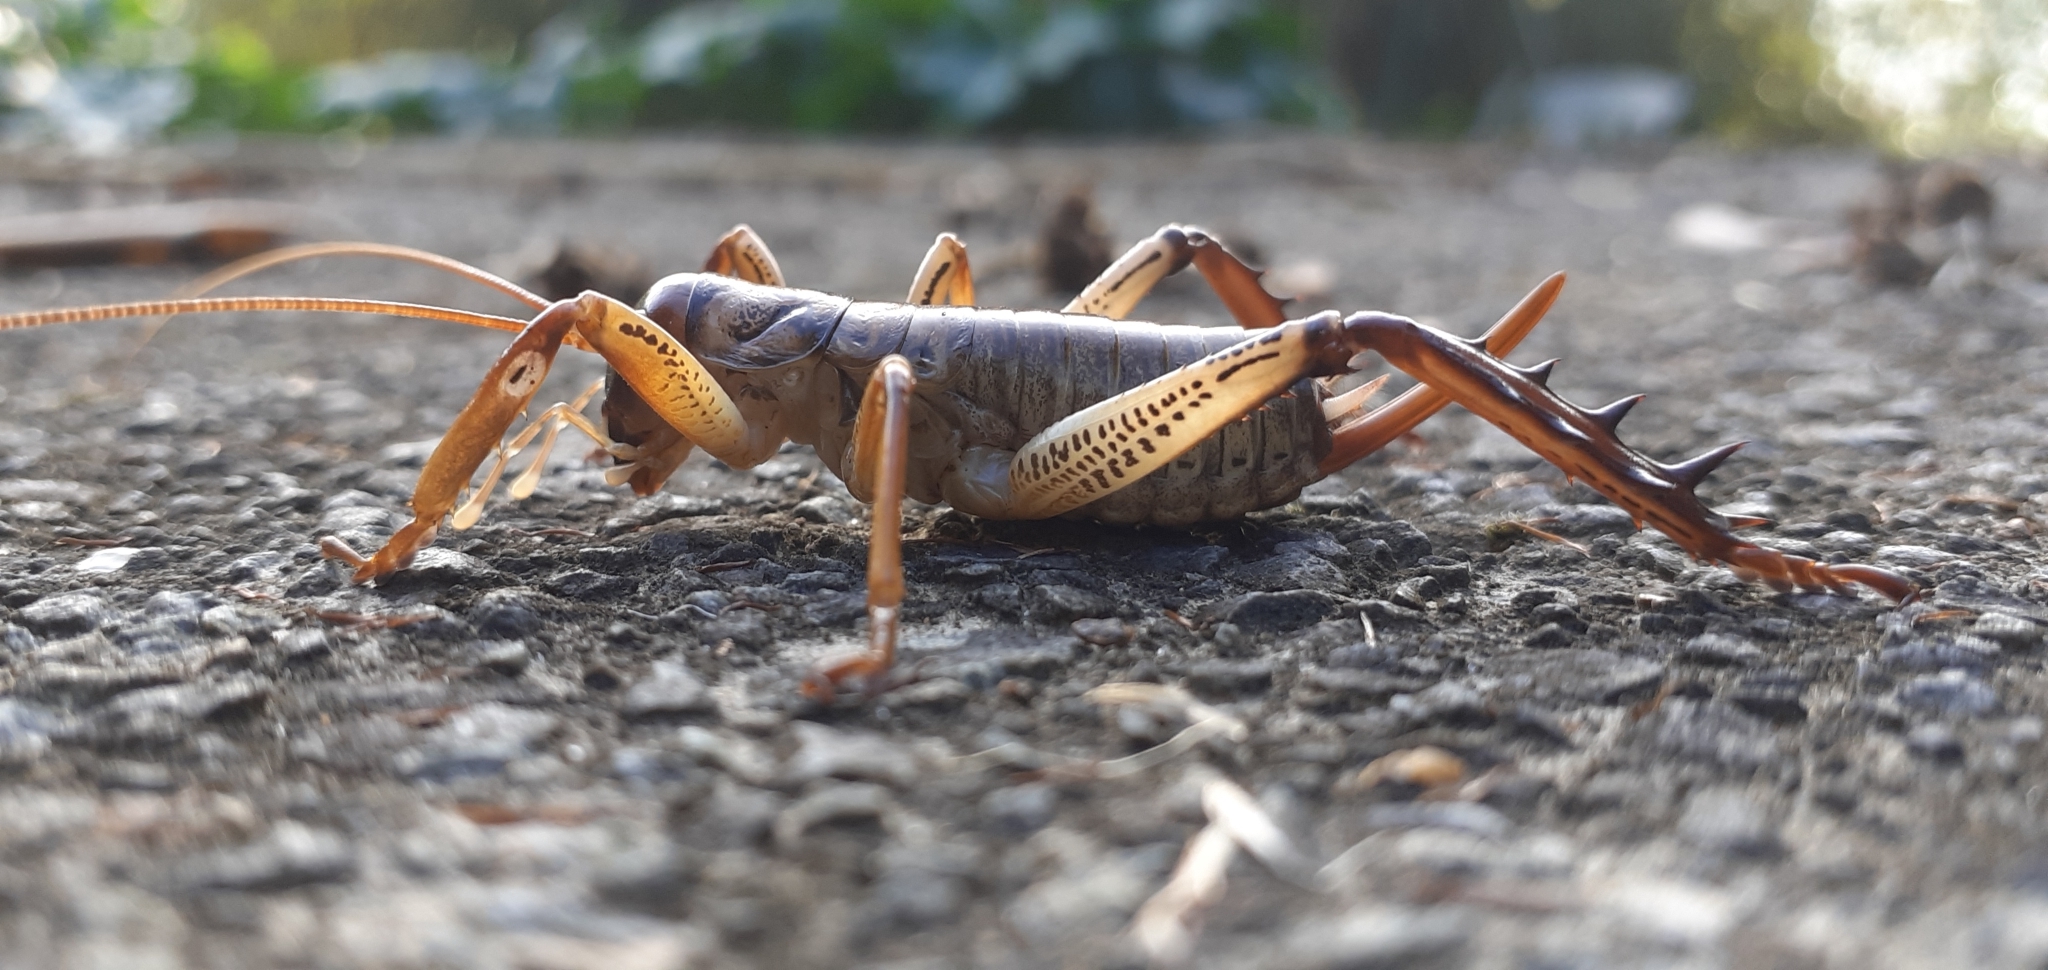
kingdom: Animalia
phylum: Arthropoda
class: Insecta
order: Orthoptera
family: Anostostomatidae
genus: Hemideina
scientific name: Hemideina thoracica
